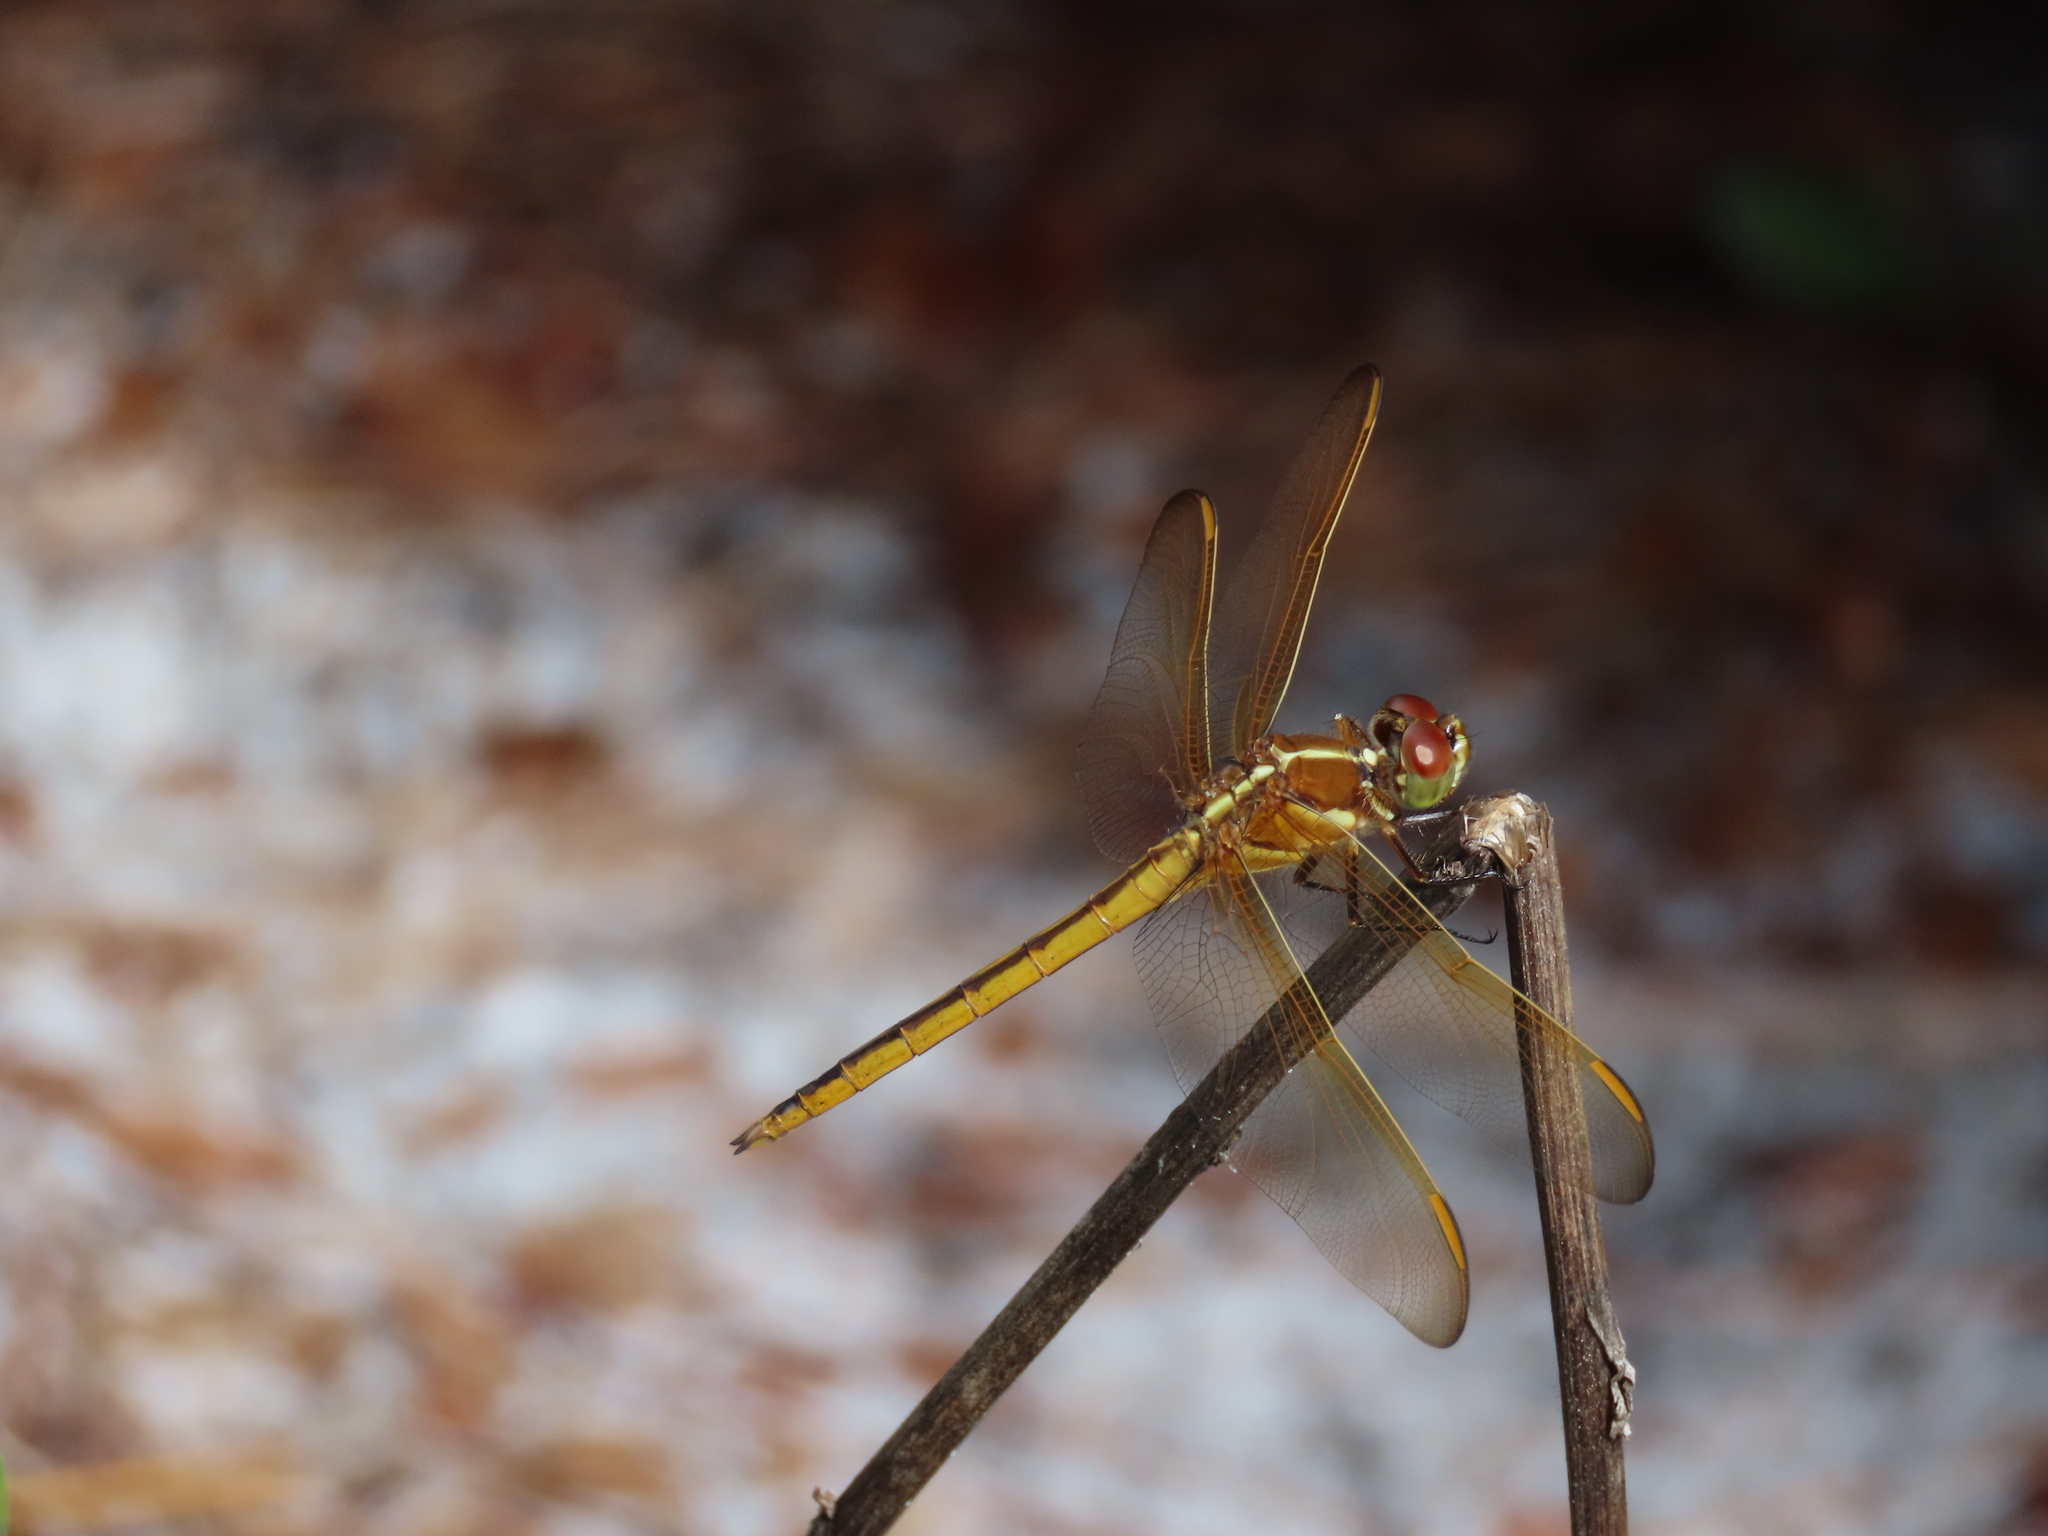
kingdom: Animalia
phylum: Arthropoda
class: Insecta
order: Odonata
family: Libellulidae
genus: Libellula
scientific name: Libellula auripennis
